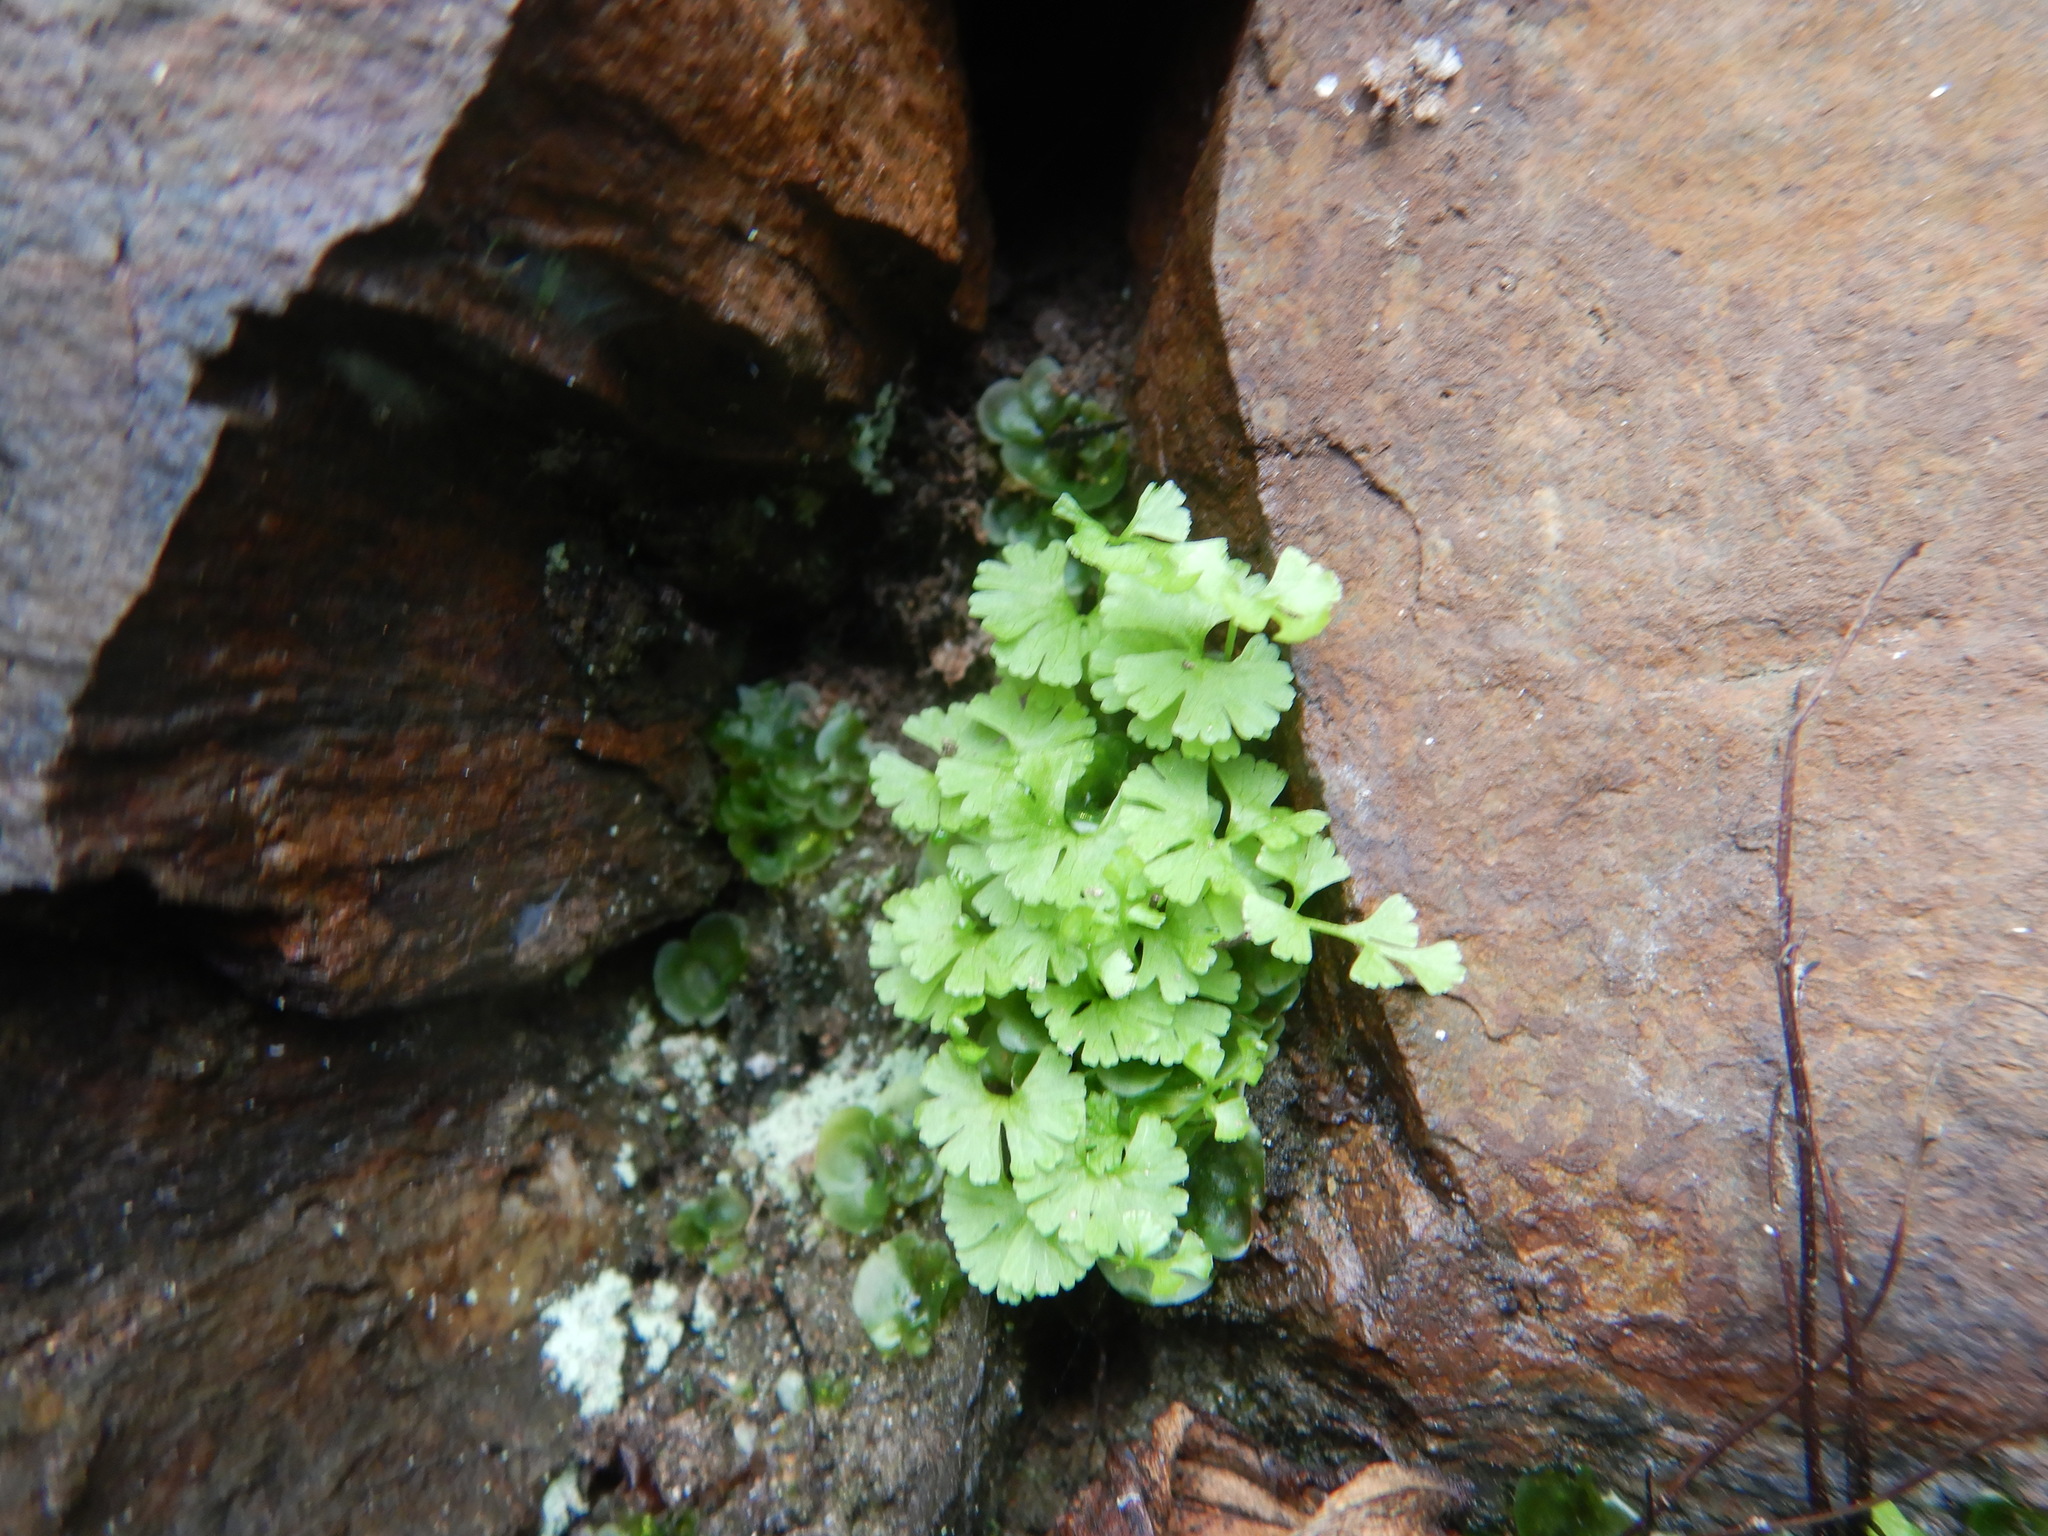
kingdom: Plantae
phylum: Tracheophyta
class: Polypodiopsida
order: Polypodiales
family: Pteridaceae
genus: Anogramma
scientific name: Anogramma leptophylla
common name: Jersey fern
